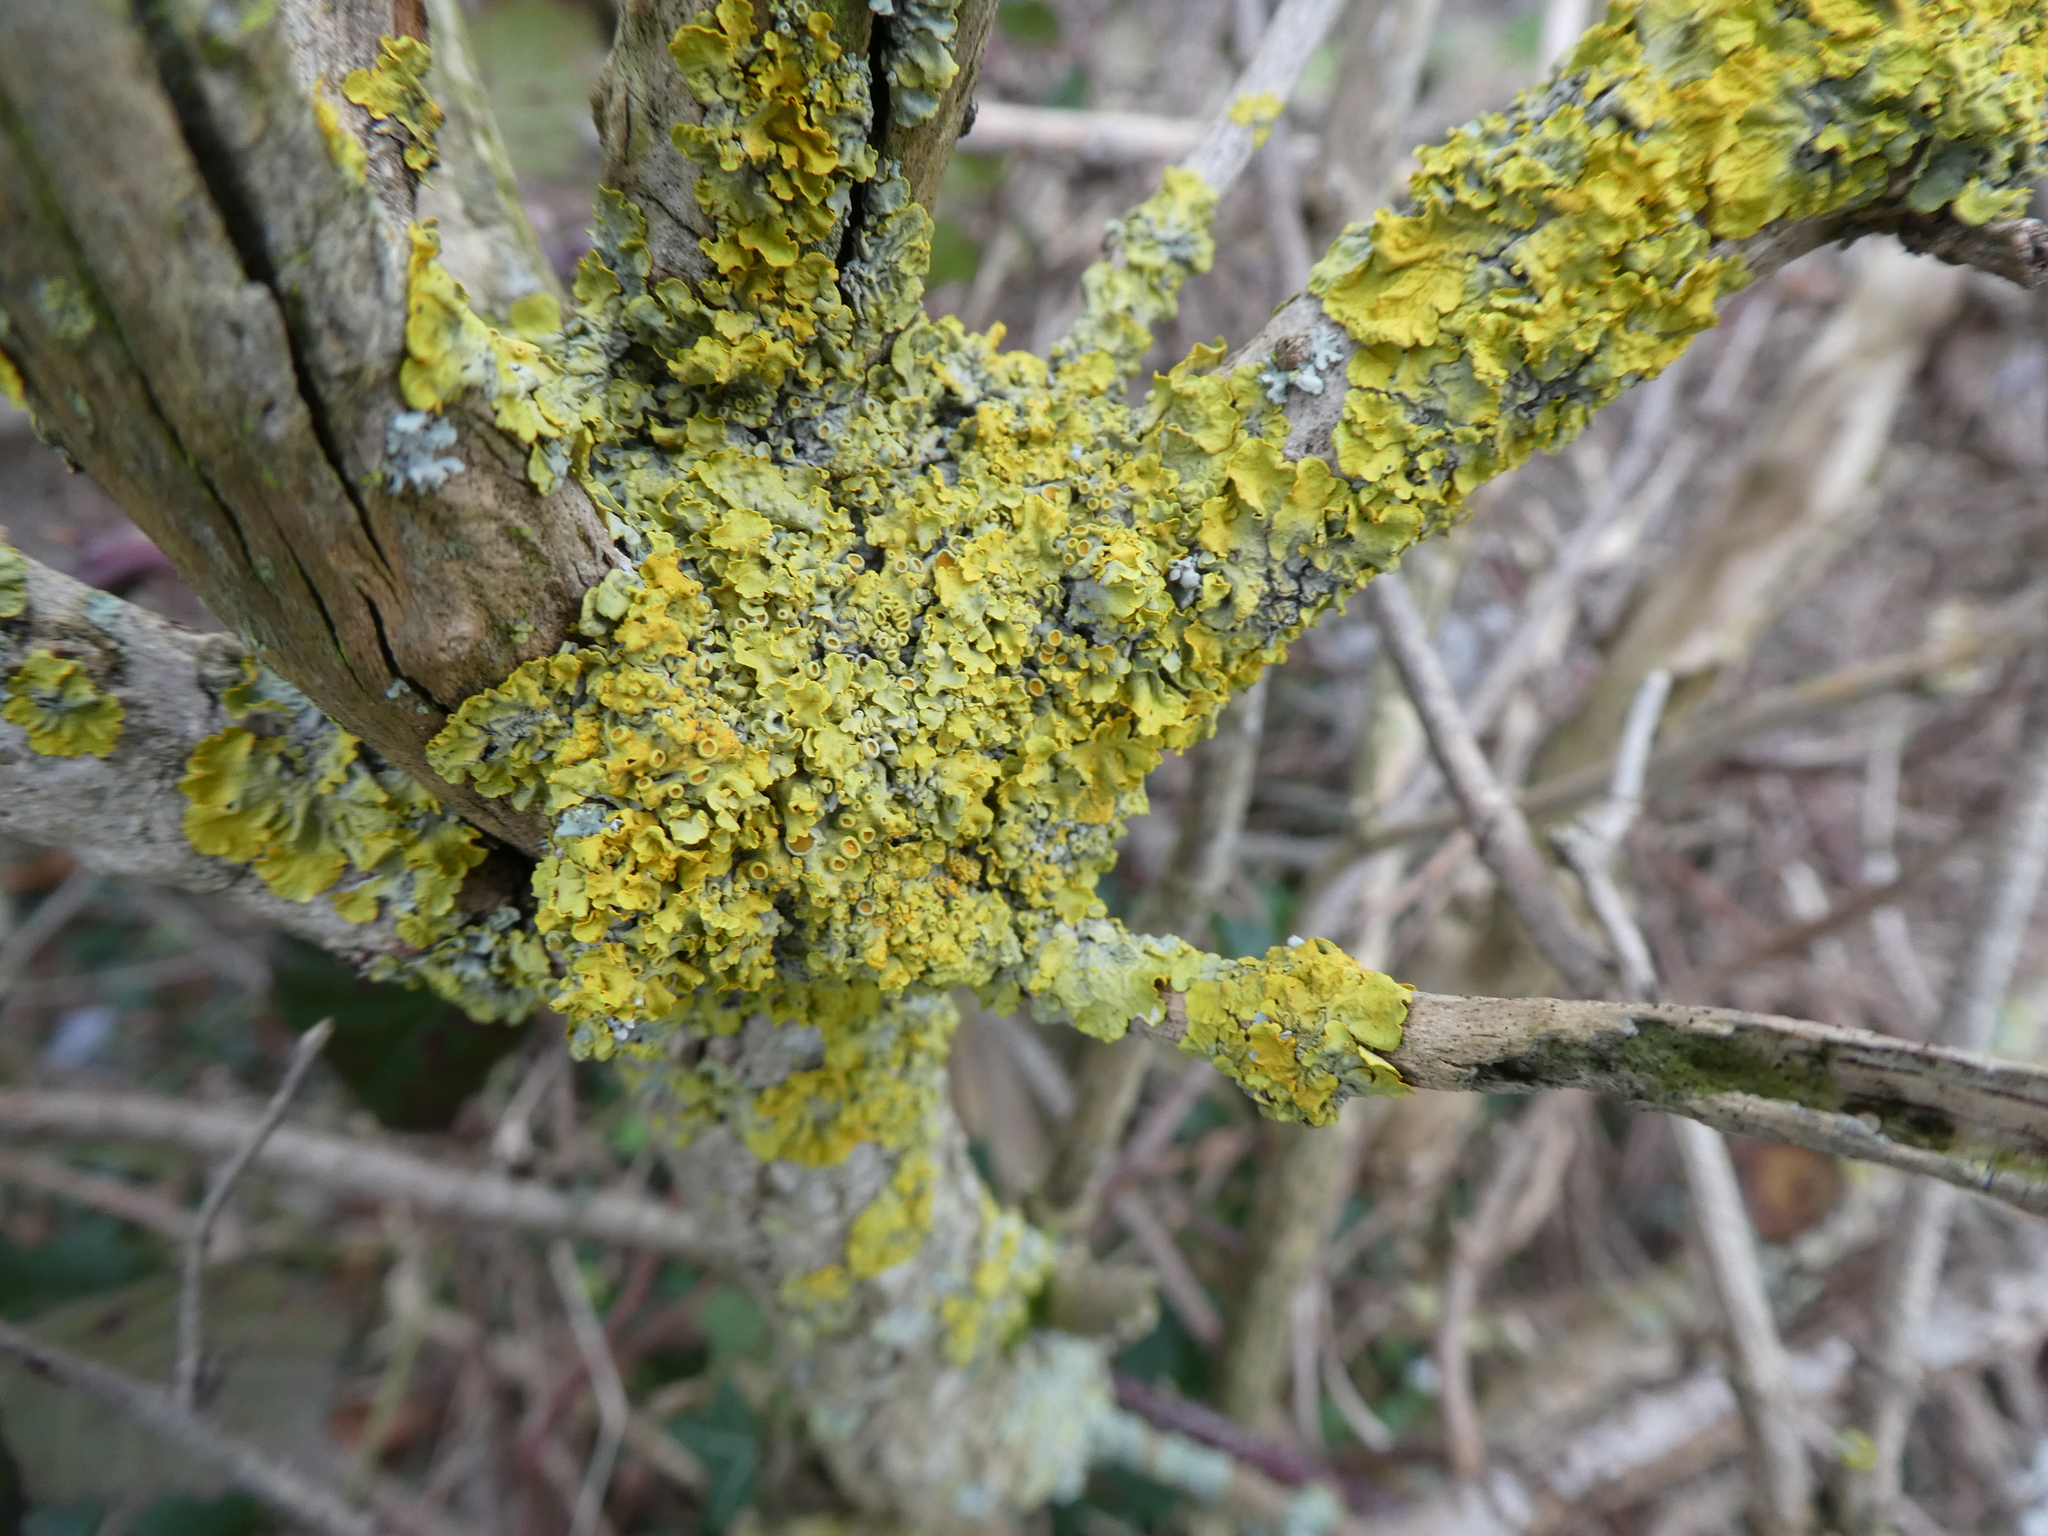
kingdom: Fungi
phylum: Ascomycota
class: Lecanoromycetes
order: Teloschistales
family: Teloschistaceae
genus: Xanthoria
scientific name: Xanthoria parietina
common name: Common orange lichen
